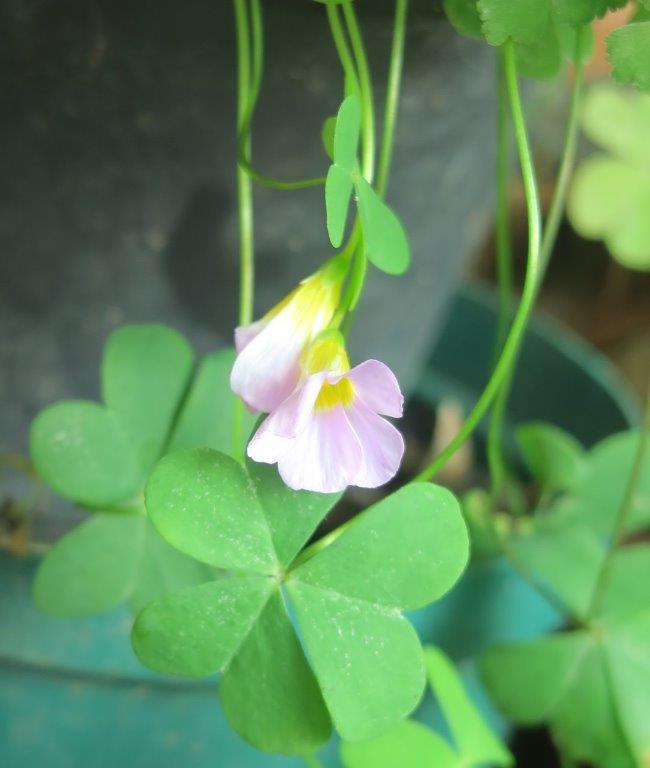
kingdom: Plantae
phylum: Tracheophyta
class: Magnoliopsida
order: Oxalidales
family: Oxalidaceae
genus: Oxalis
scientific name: Oxalis caprina
